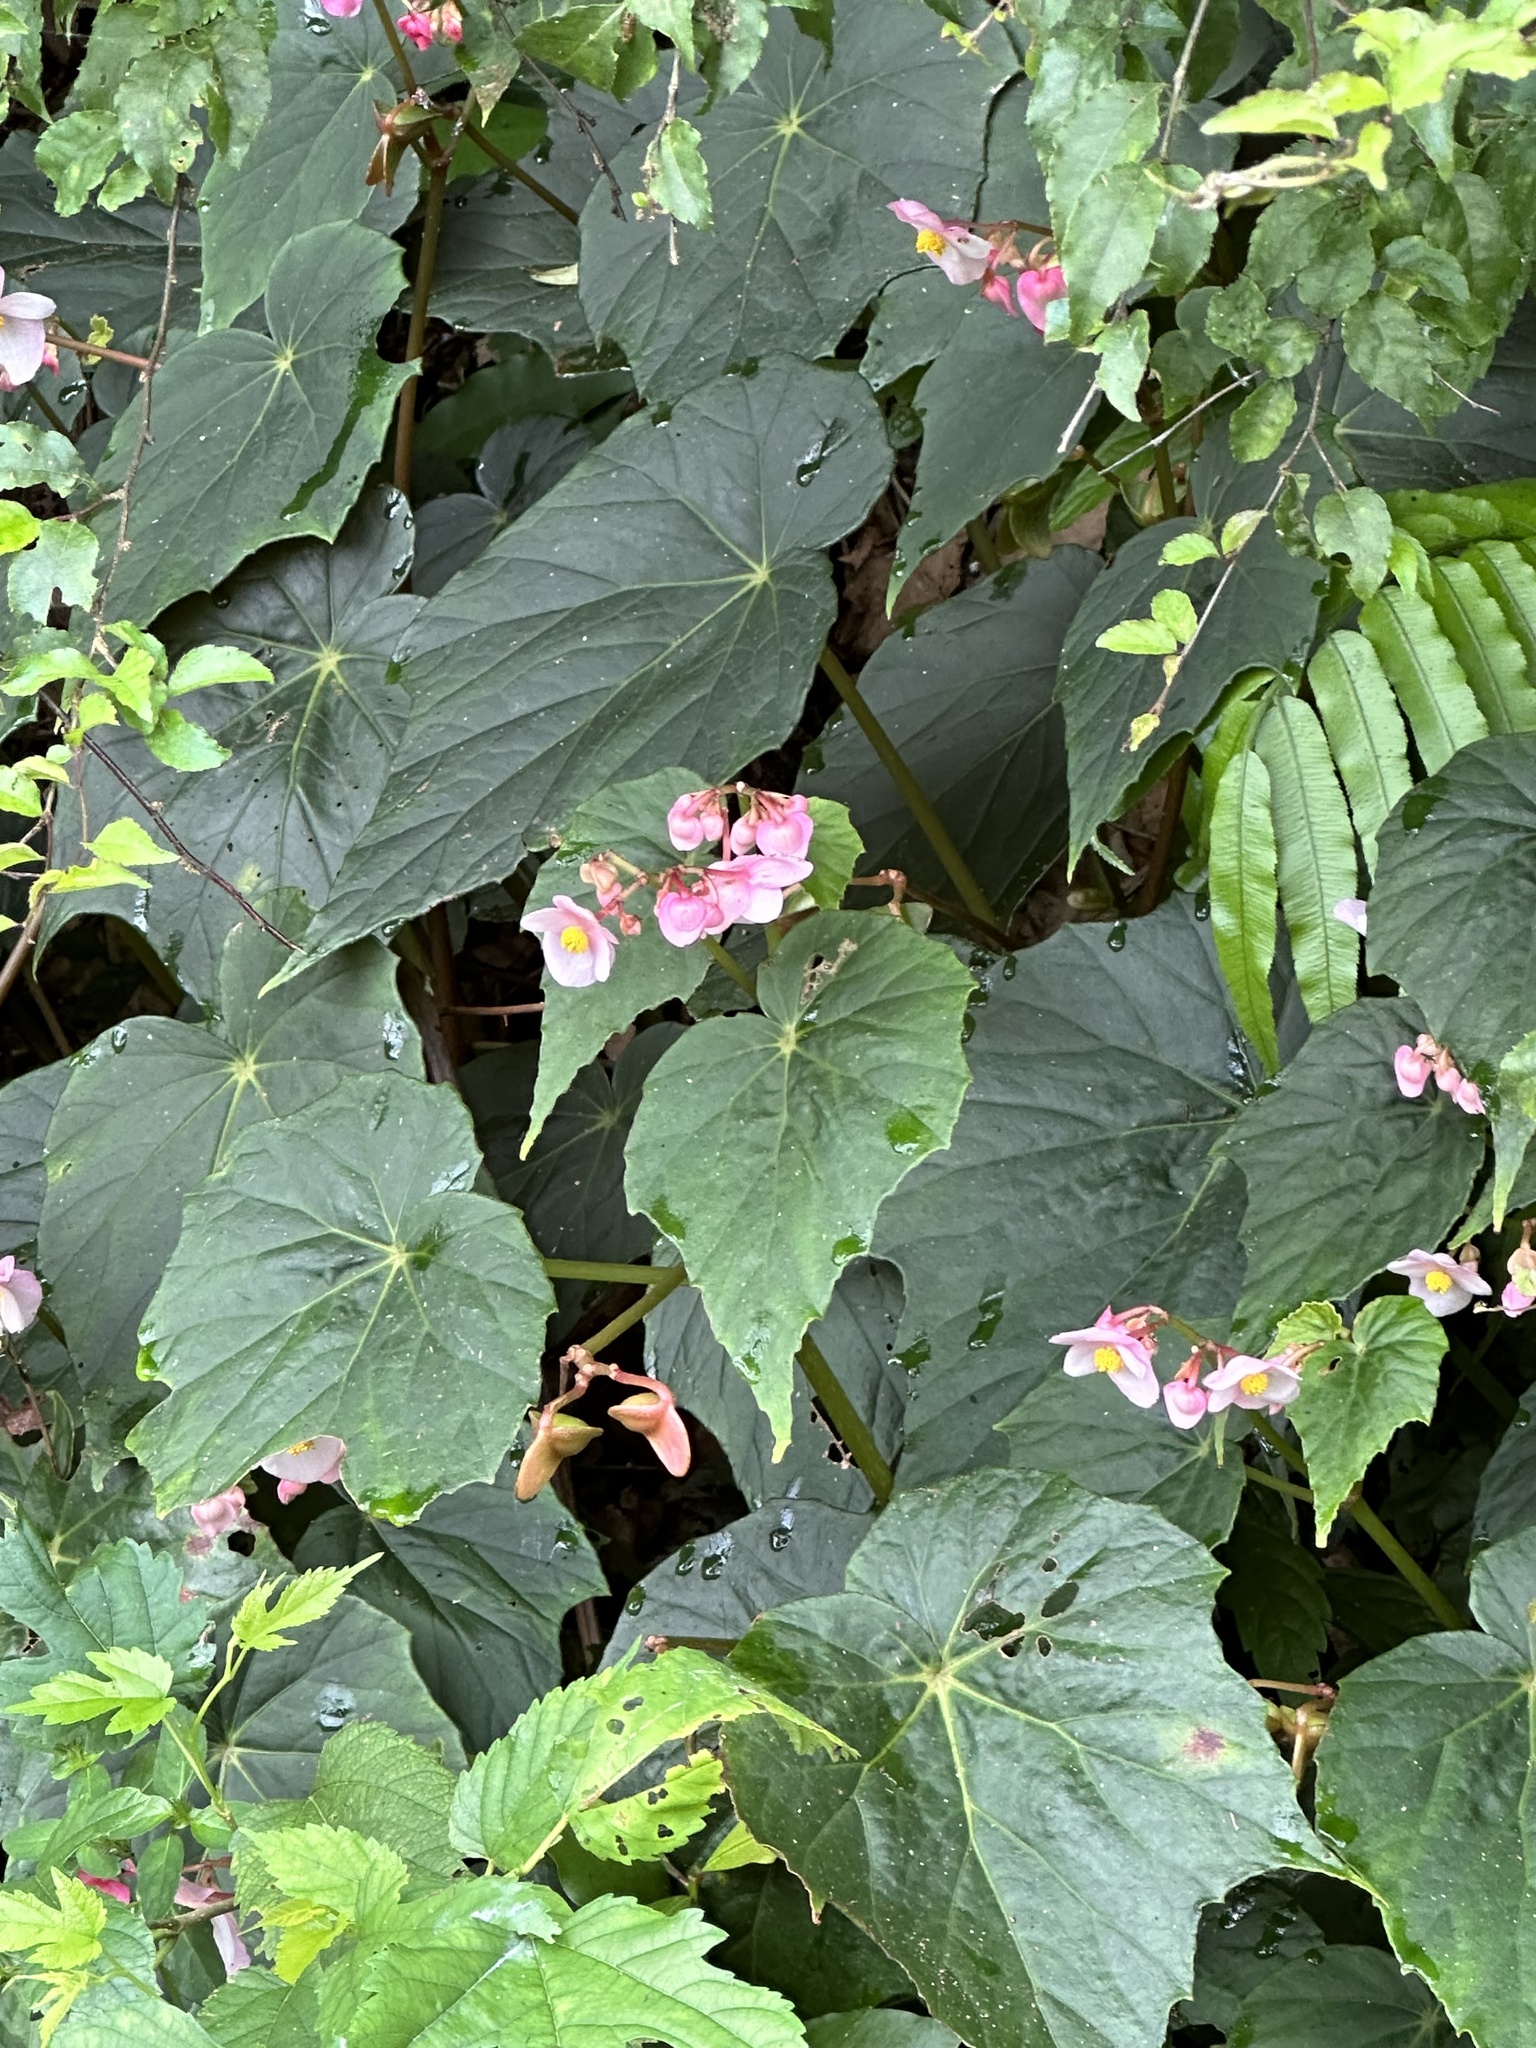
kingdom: Plantae
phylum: Tracheophyta
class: Magnoliopsida
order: Cucurbitales
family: Begoniaceae
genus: Begonia
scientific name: Begonia formosana
